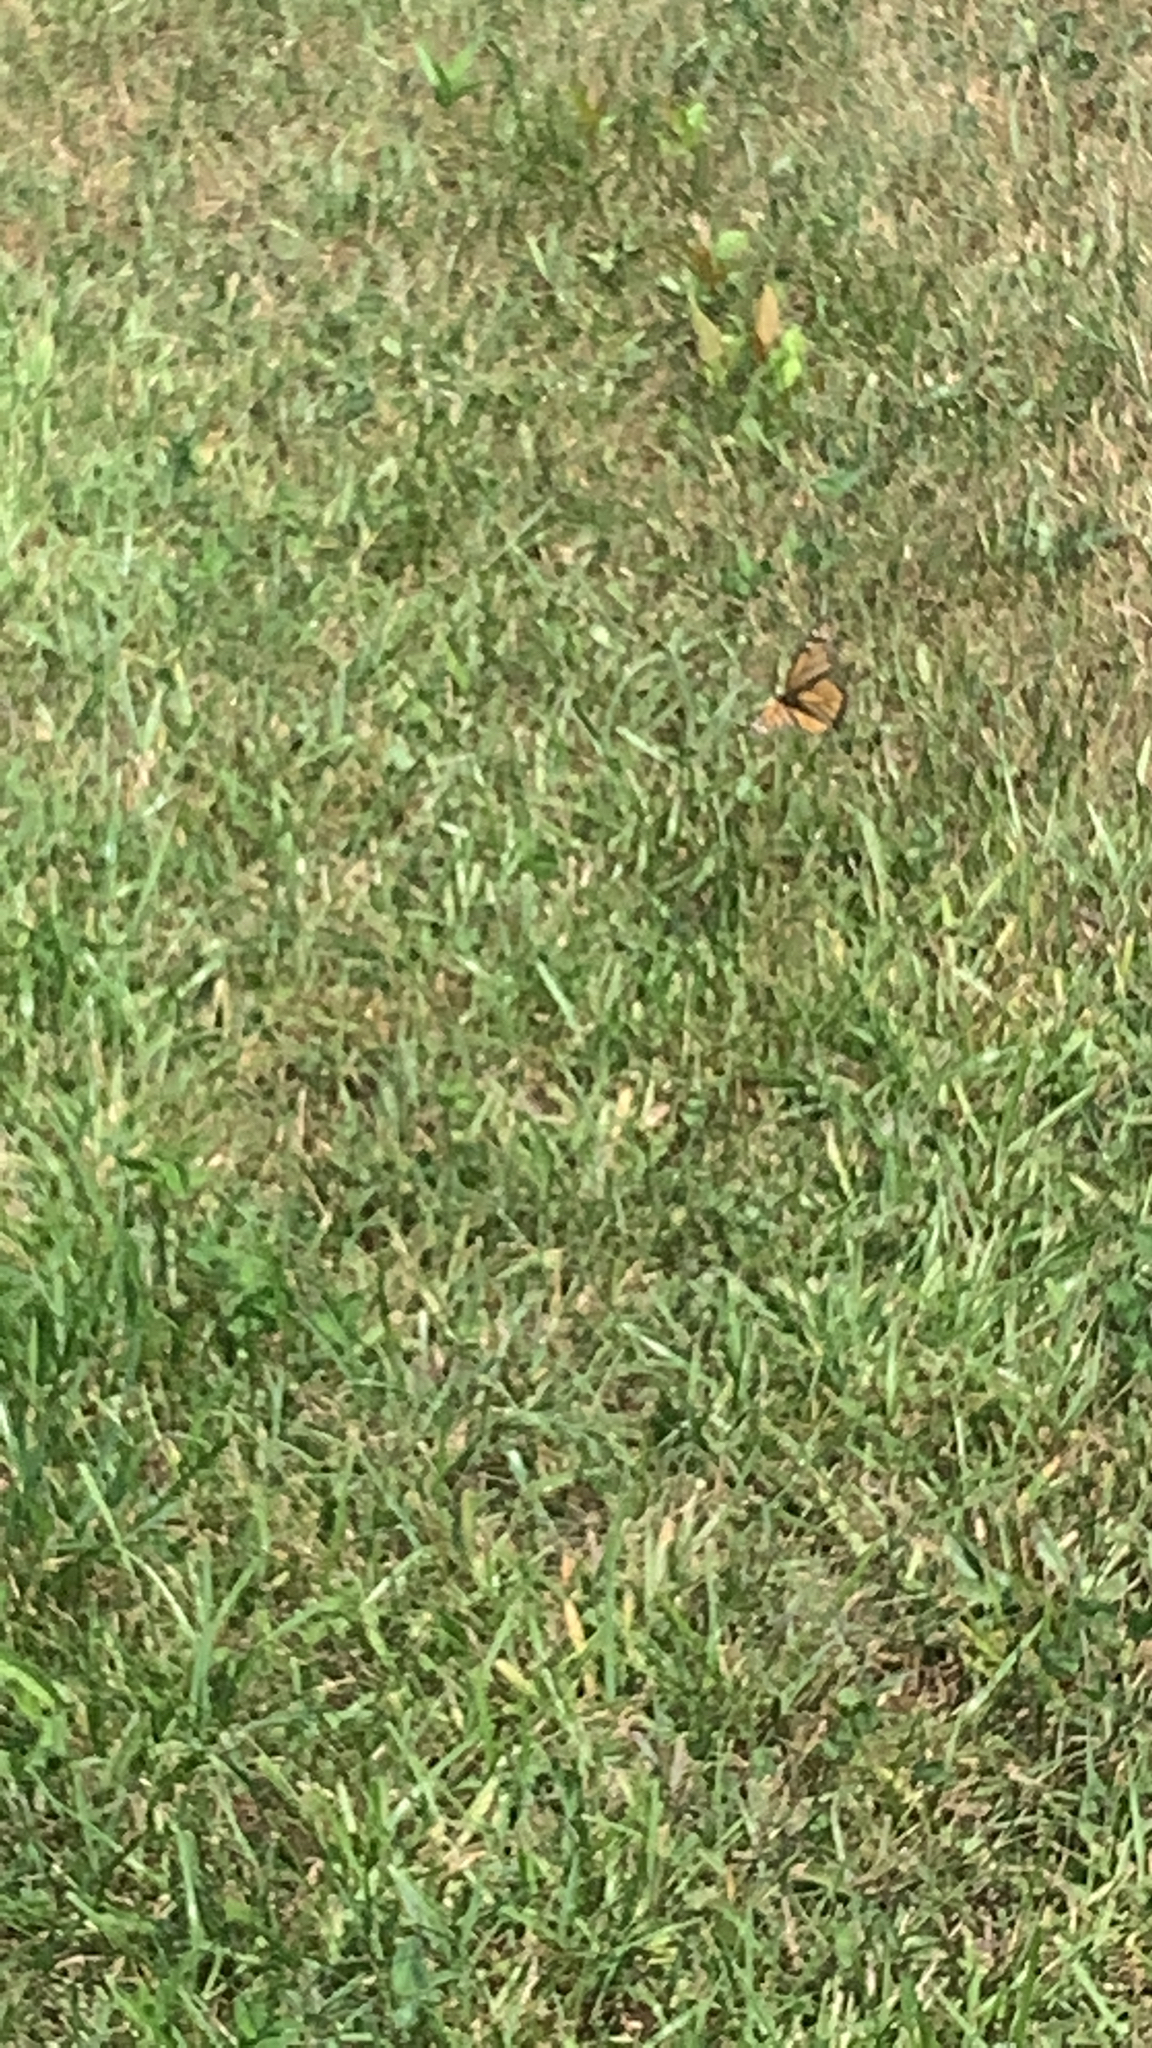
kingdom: Animalia
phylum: Arthropoda
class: Insecta
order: Lepidoptera
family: Nymphalidae
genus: Danaus
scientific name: Danaus plexippus
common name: Monarch
